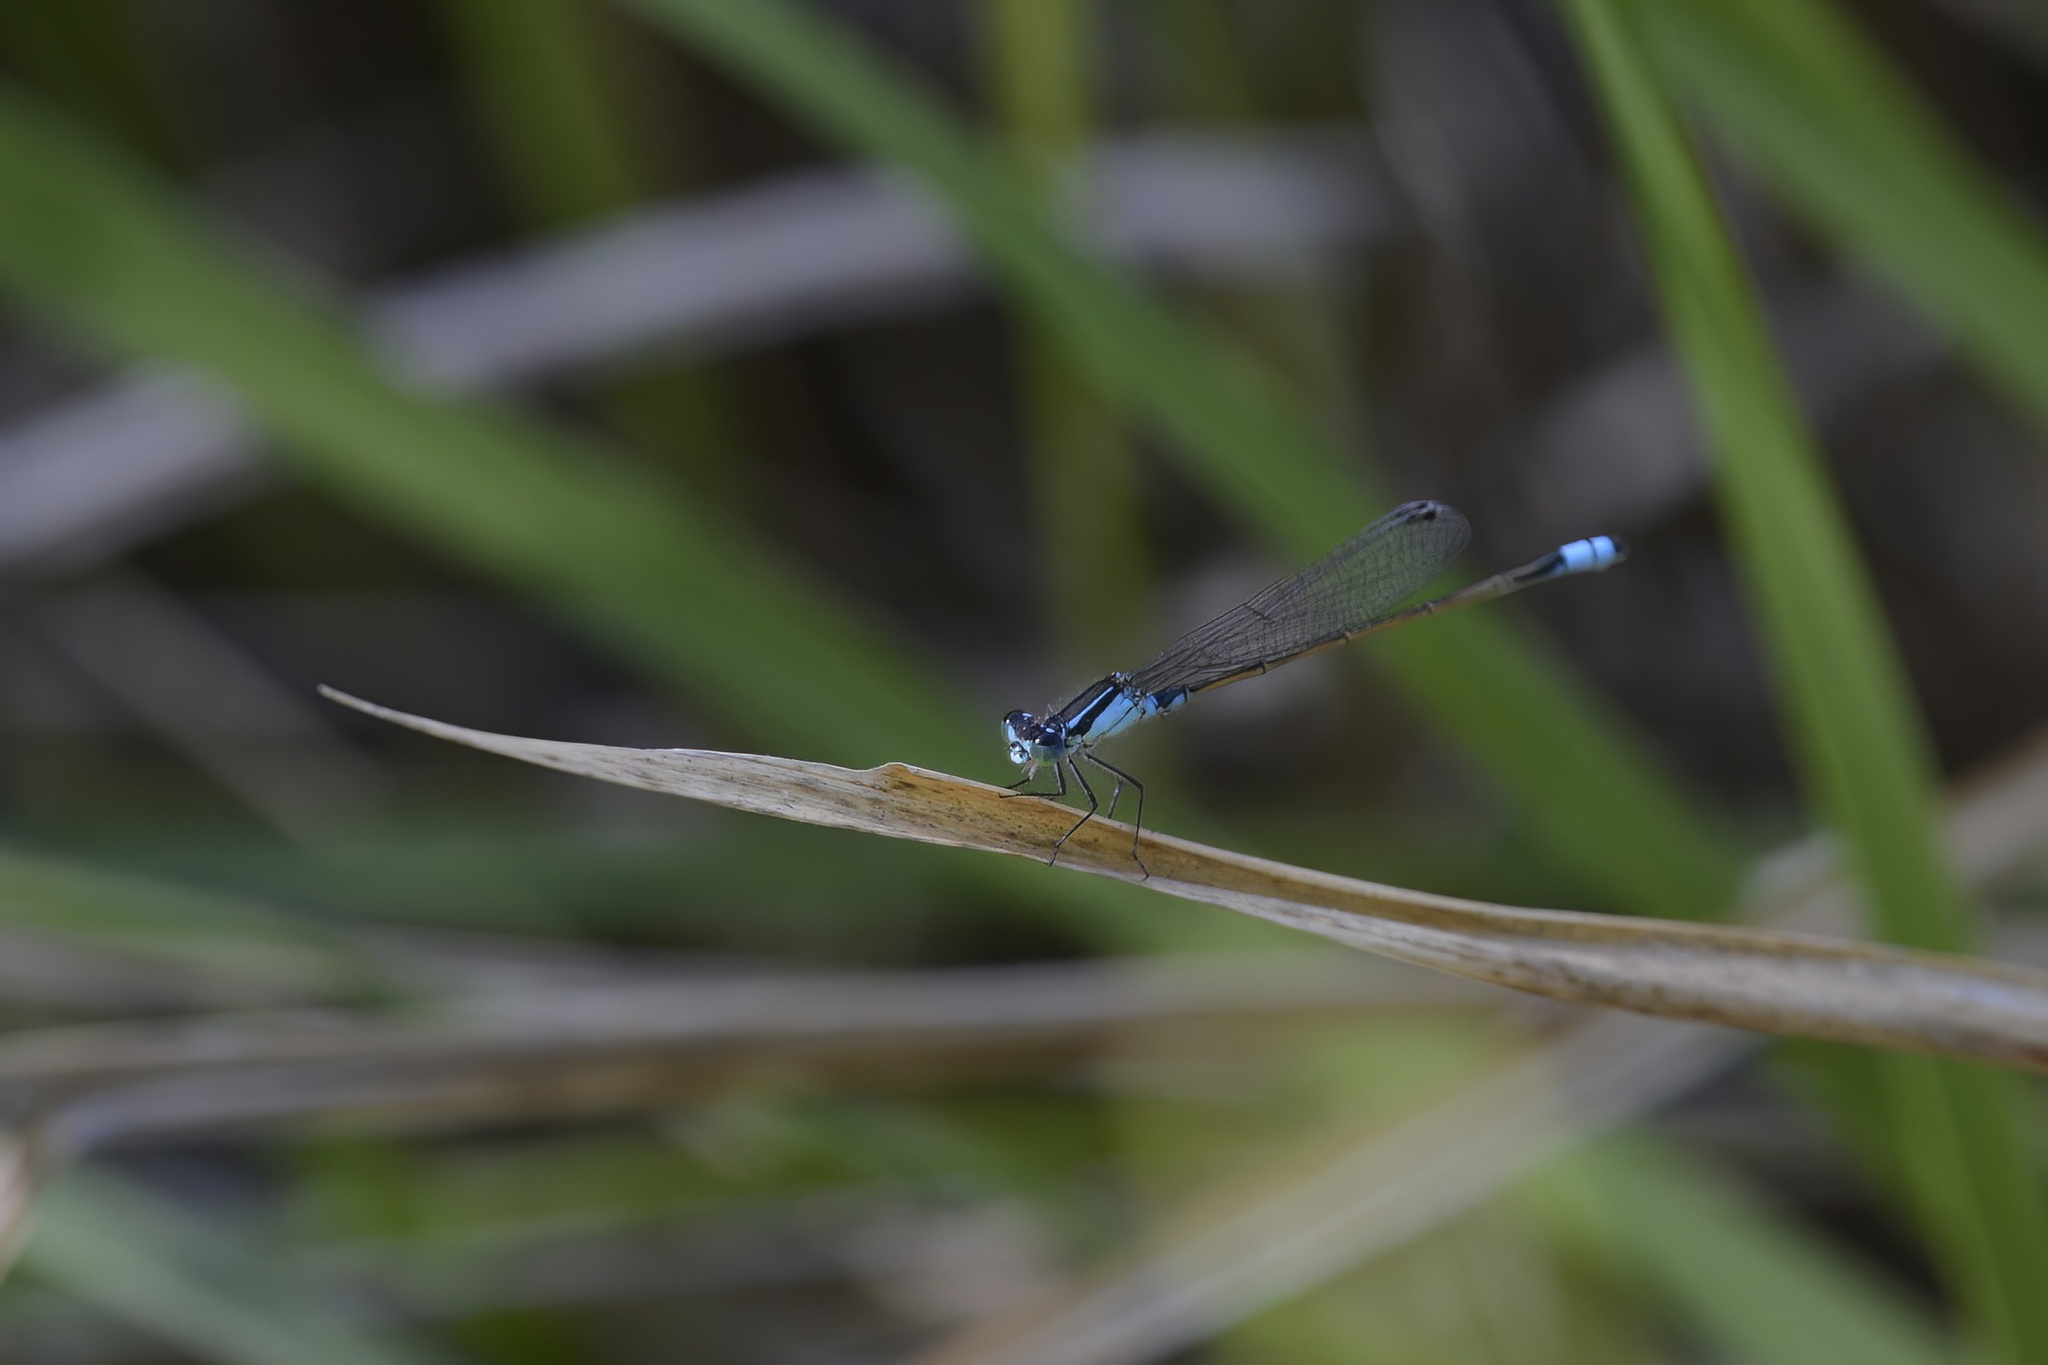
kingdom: Animalia
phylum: Arthropoda
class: Insecta
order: Odonata
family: Coenagrionidae
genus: Ischnura
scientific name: Ischnura heterosticta
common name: Common bluetail
